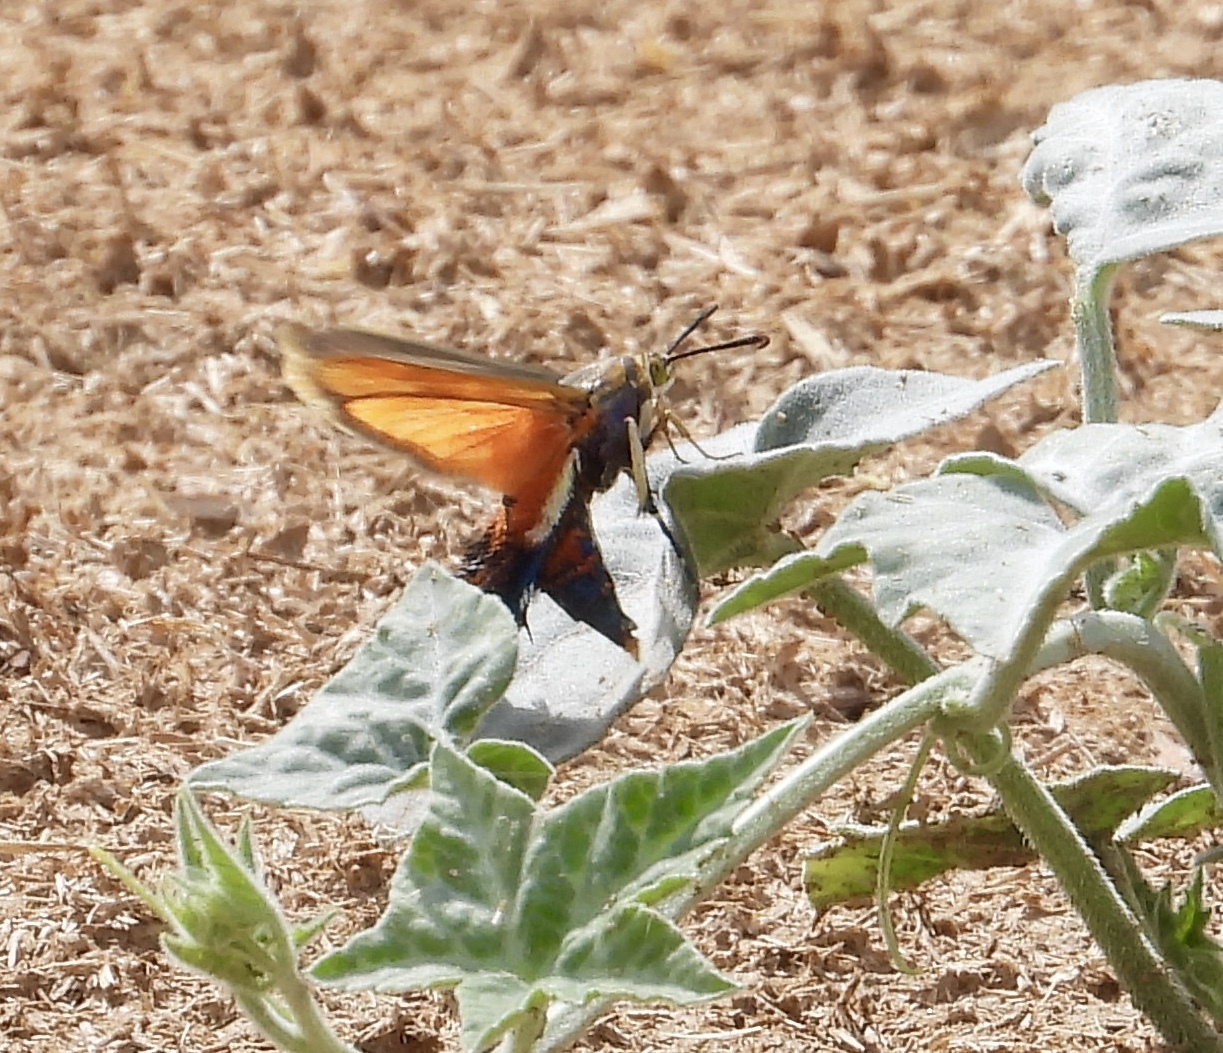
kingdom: Animalia
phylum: Arthropoda
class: Insecta
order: Lepidoptera
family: Sesiidae
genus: Eichlinia
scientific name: Eichlinia gloriosa
